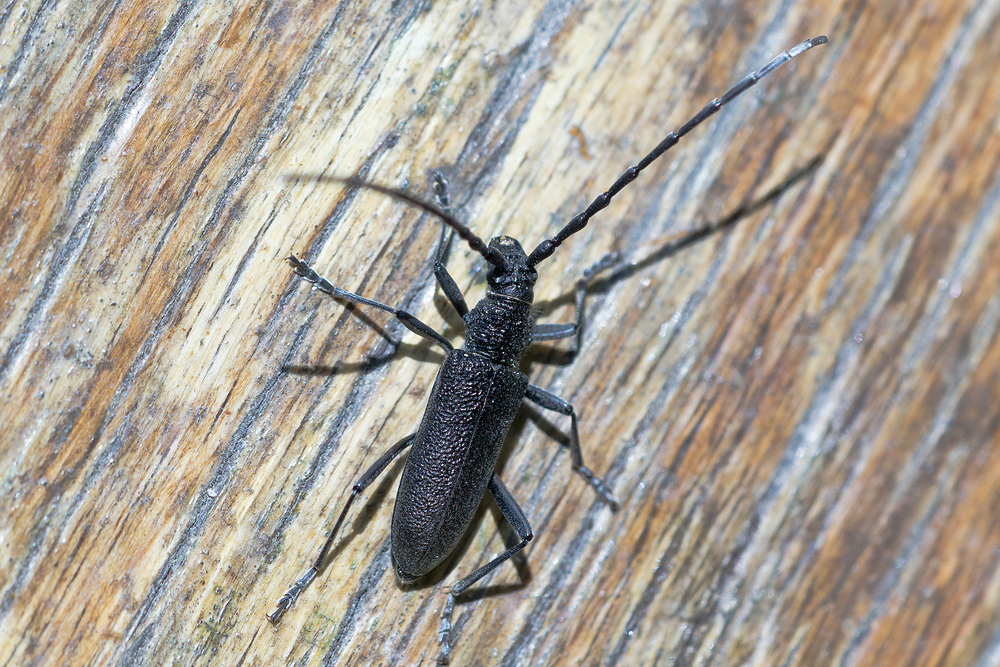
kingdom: Animalia
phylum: Arthropoda
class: Insecta
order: Coleoptera
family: Cerambycidae
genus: Cerambyx
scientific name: Cerambyx scopolii
